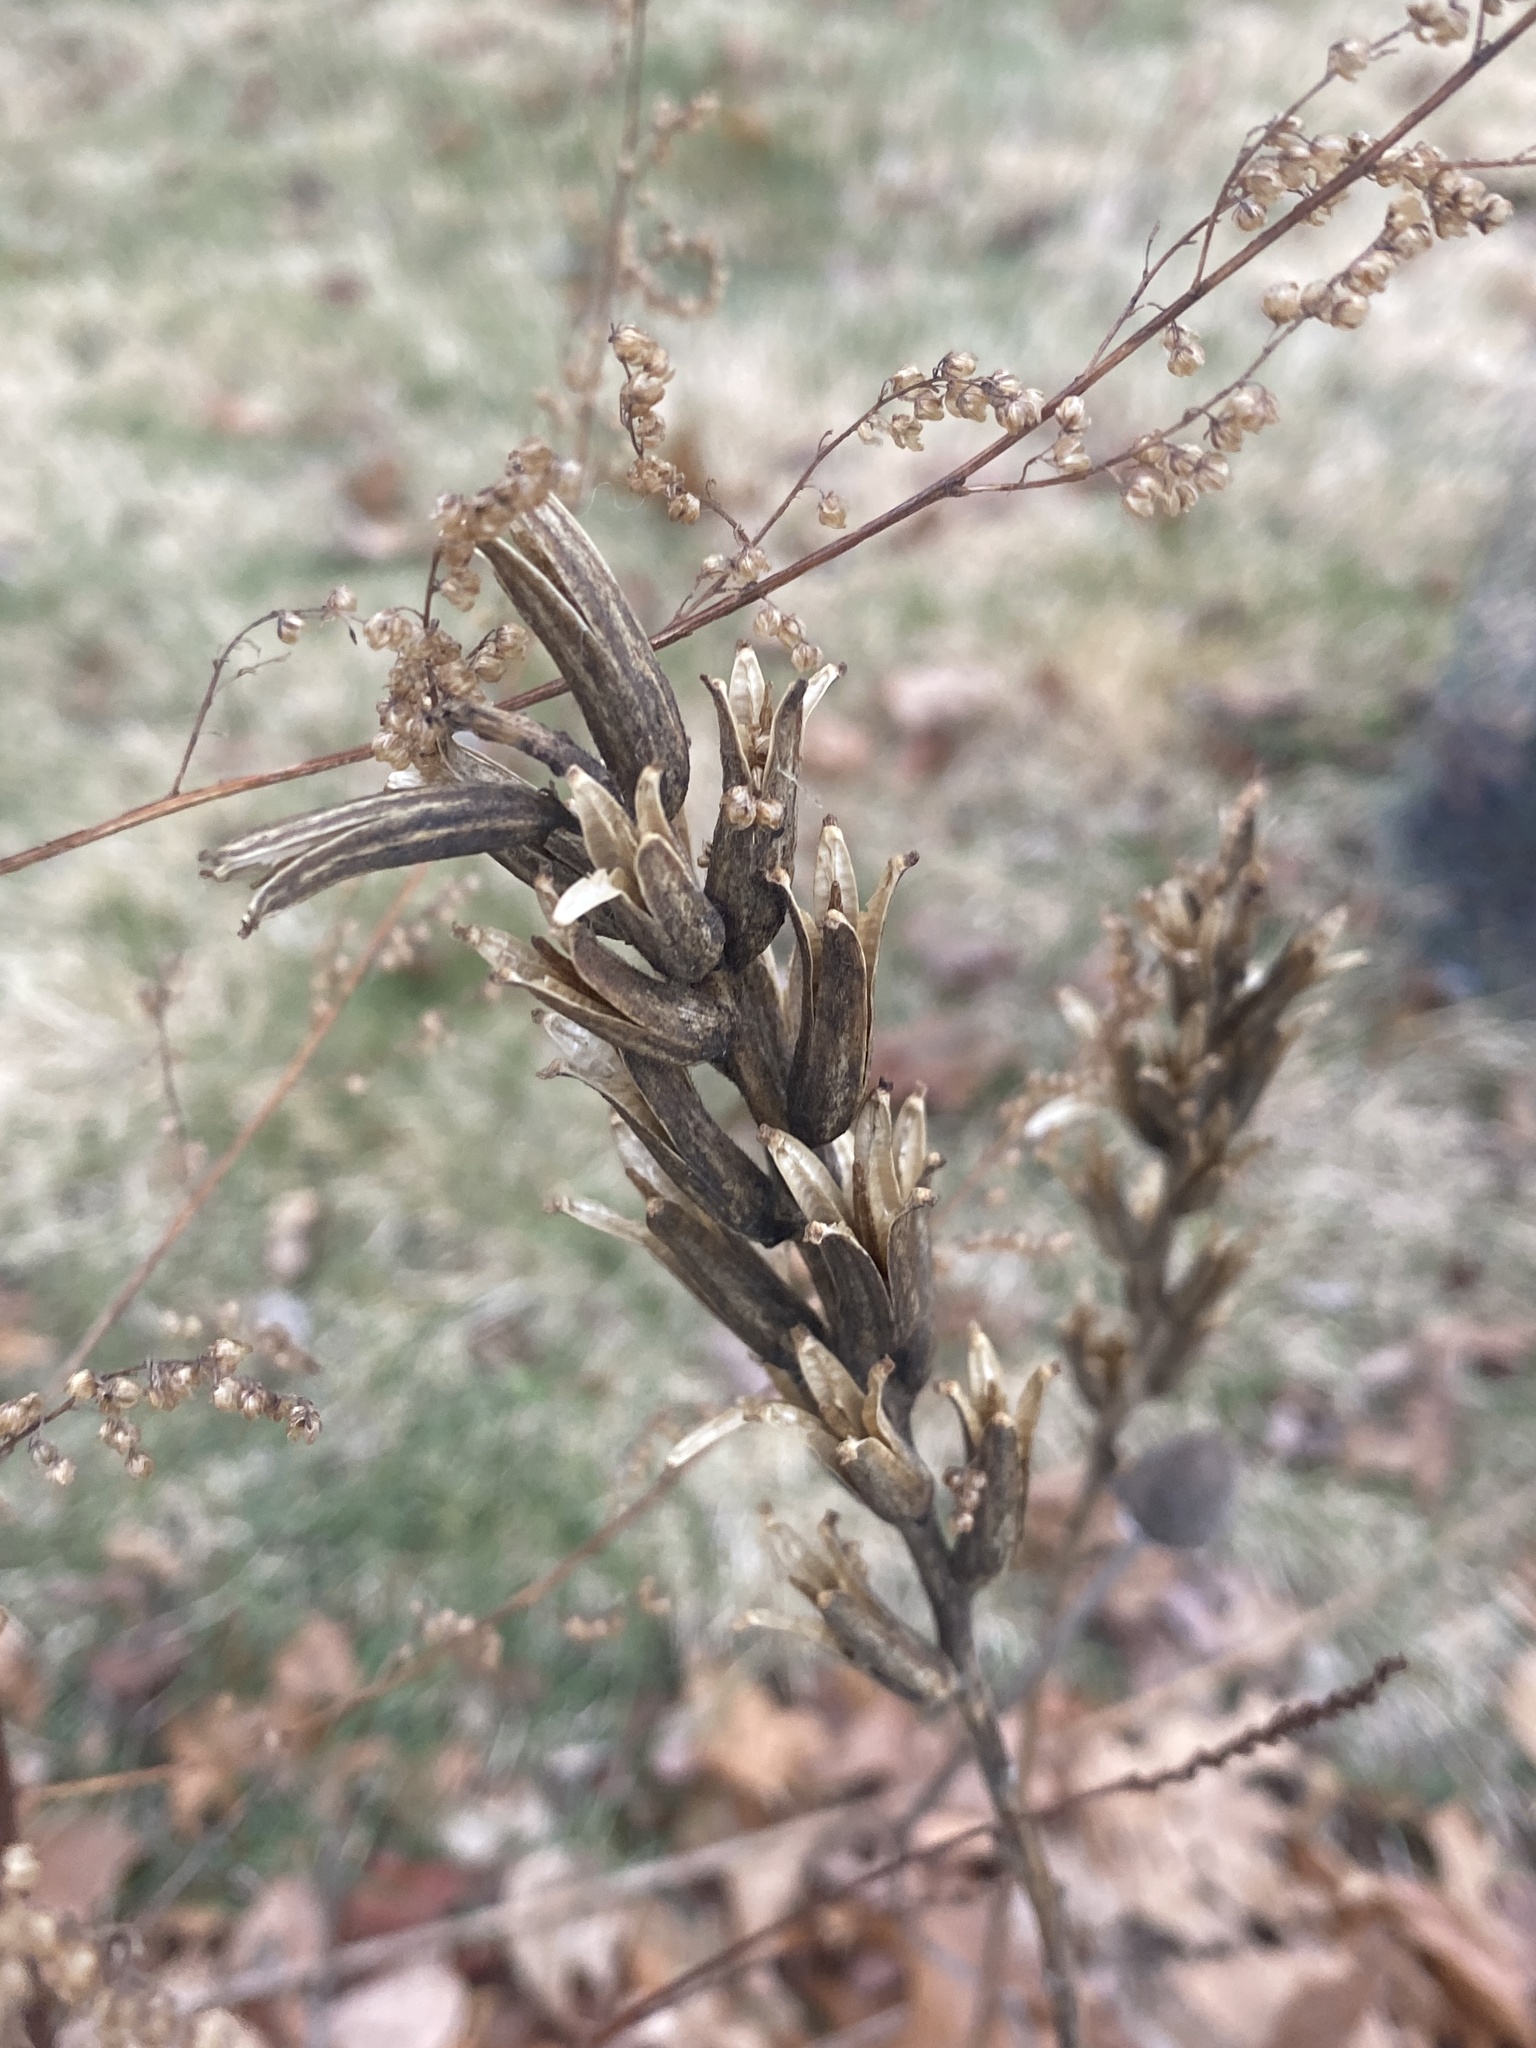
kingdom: Plantae
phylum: Tracheophyta
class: Magnoliopsida
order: Myrtales
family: Onagraceae
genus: Oenothera
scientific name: Oenothera biennis
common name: Common evening-primrose
